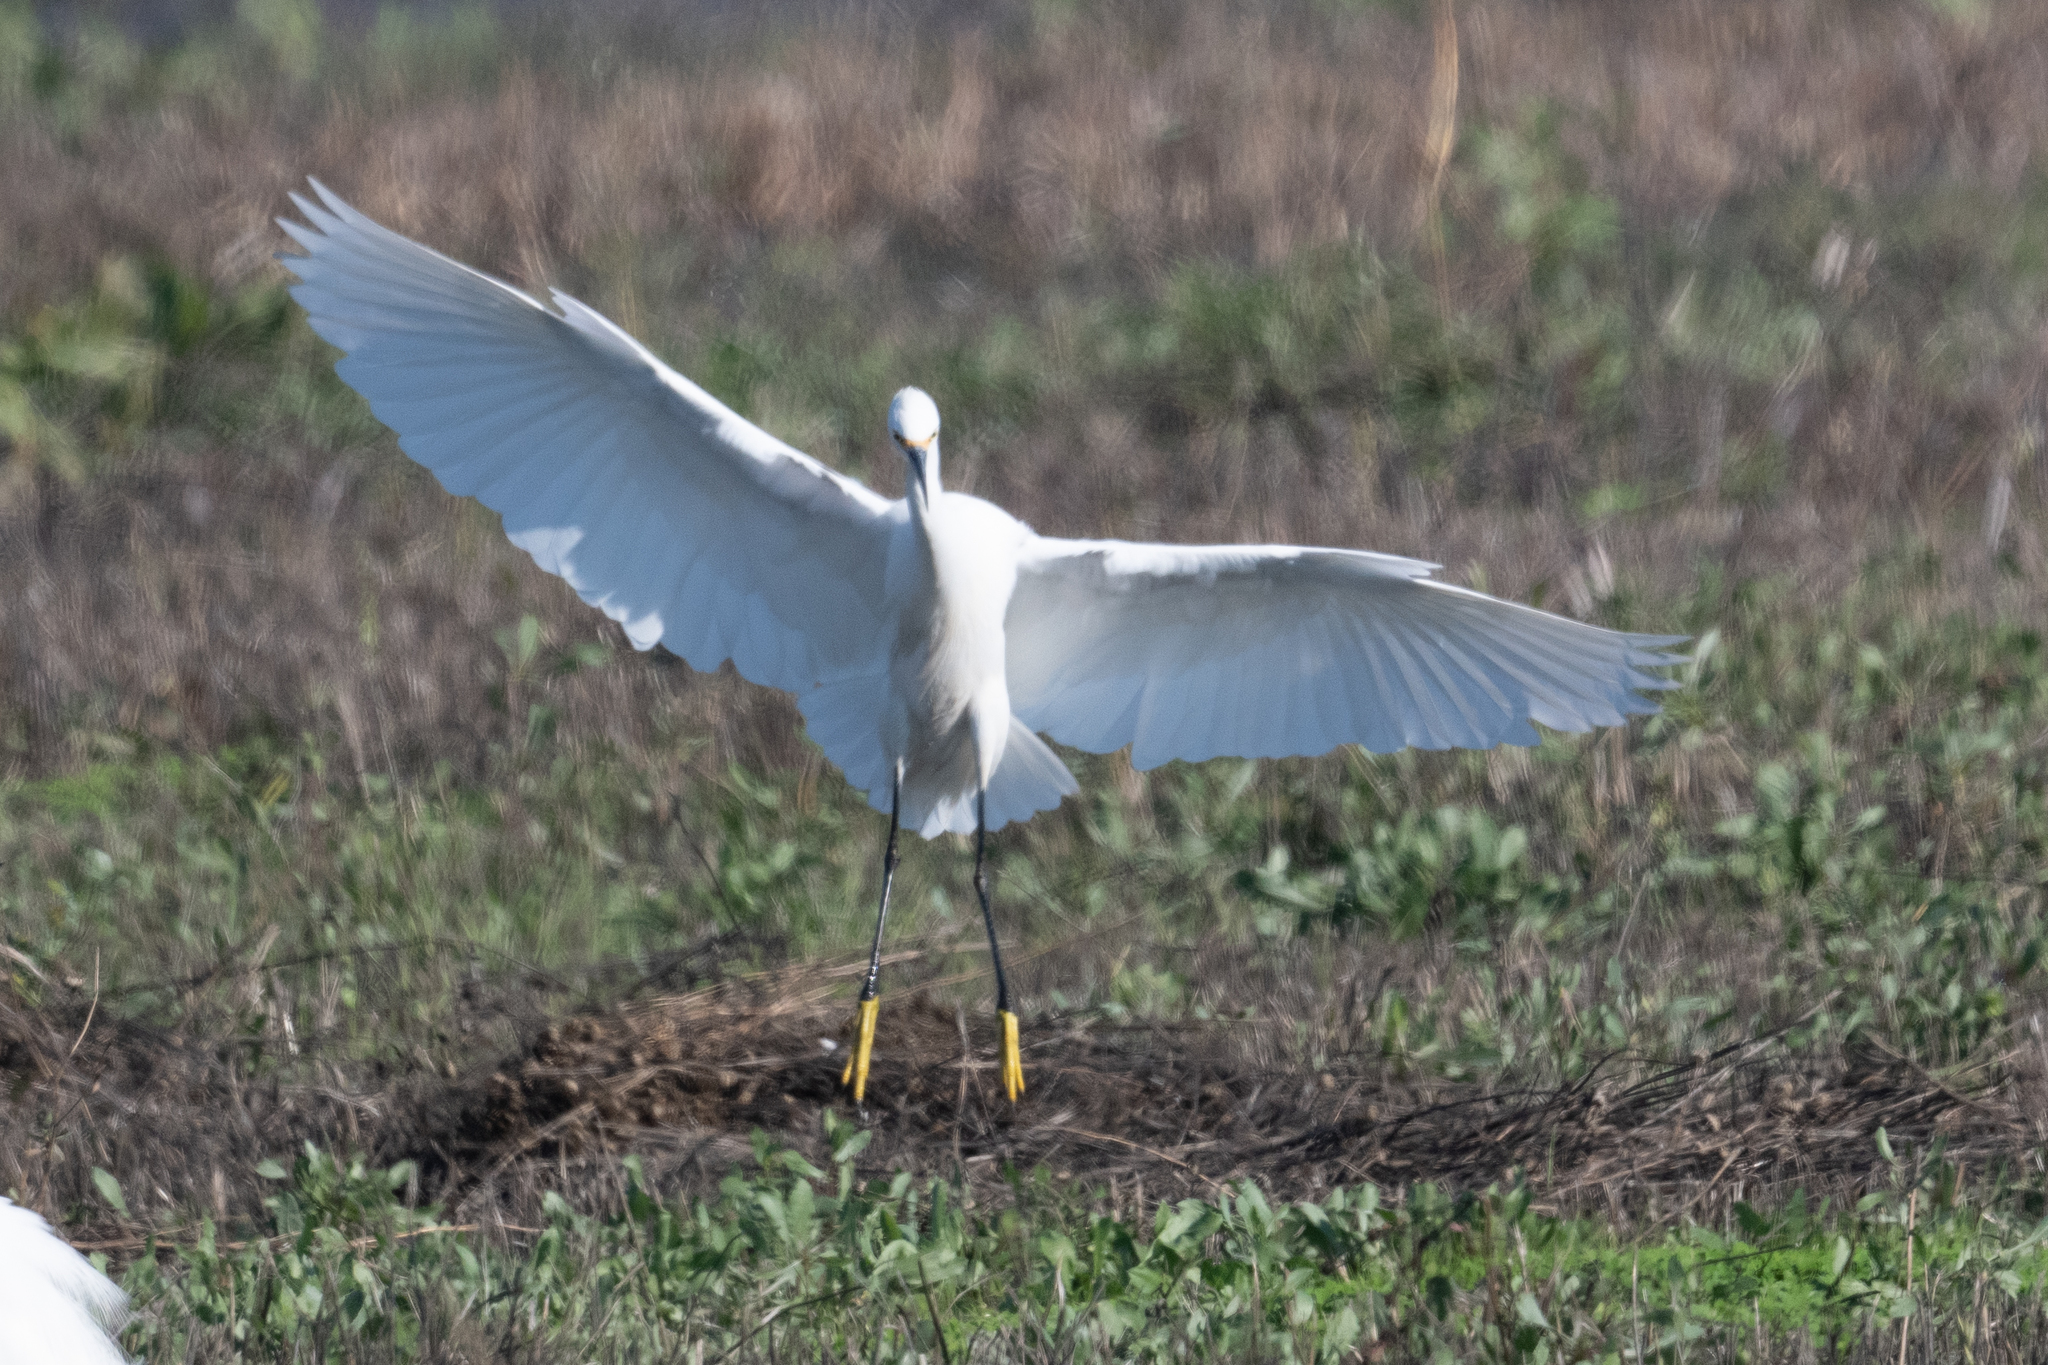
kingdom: Animalia
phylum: Chordata
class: Aves
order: Pelecaniformes
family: Ardeidae
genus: Egretta
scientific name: Egretta thula
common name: Snowy egret
